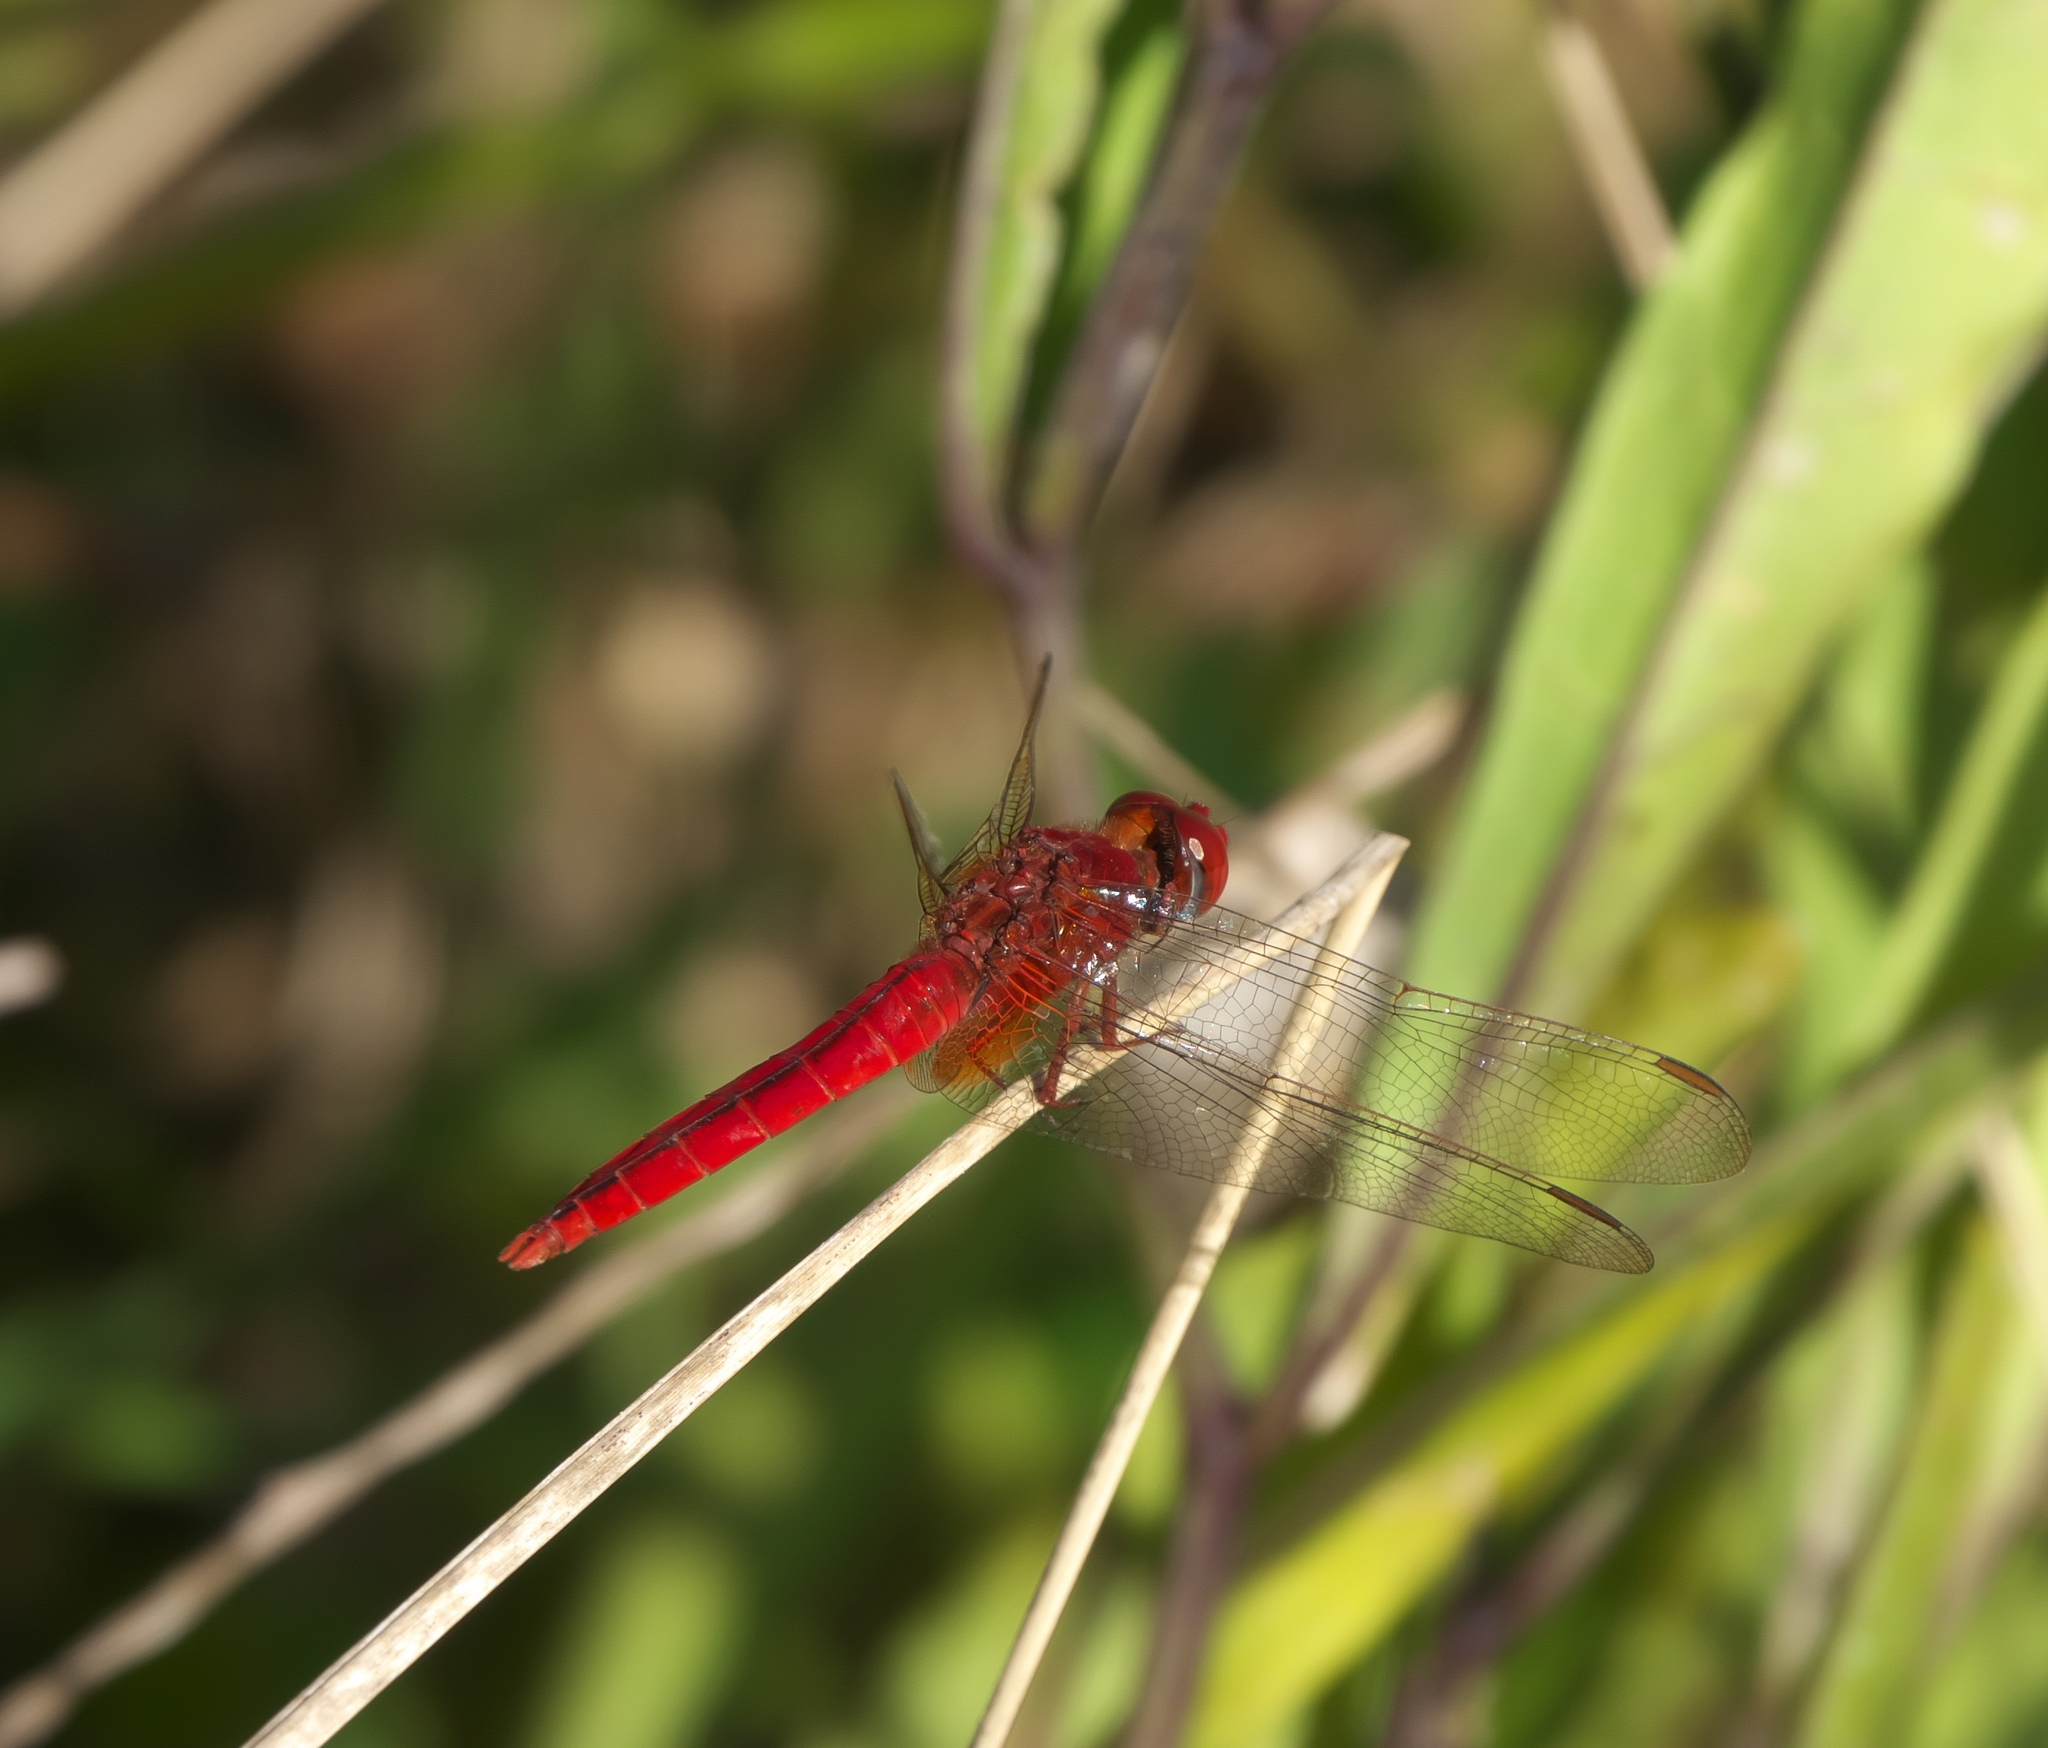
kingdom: Animalia
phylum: Arthropoda
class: Insecta
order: Odonata
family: Libellulidae
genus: Crocothemis
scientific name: Crocothemis servilia
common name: Scarlet skimmer
